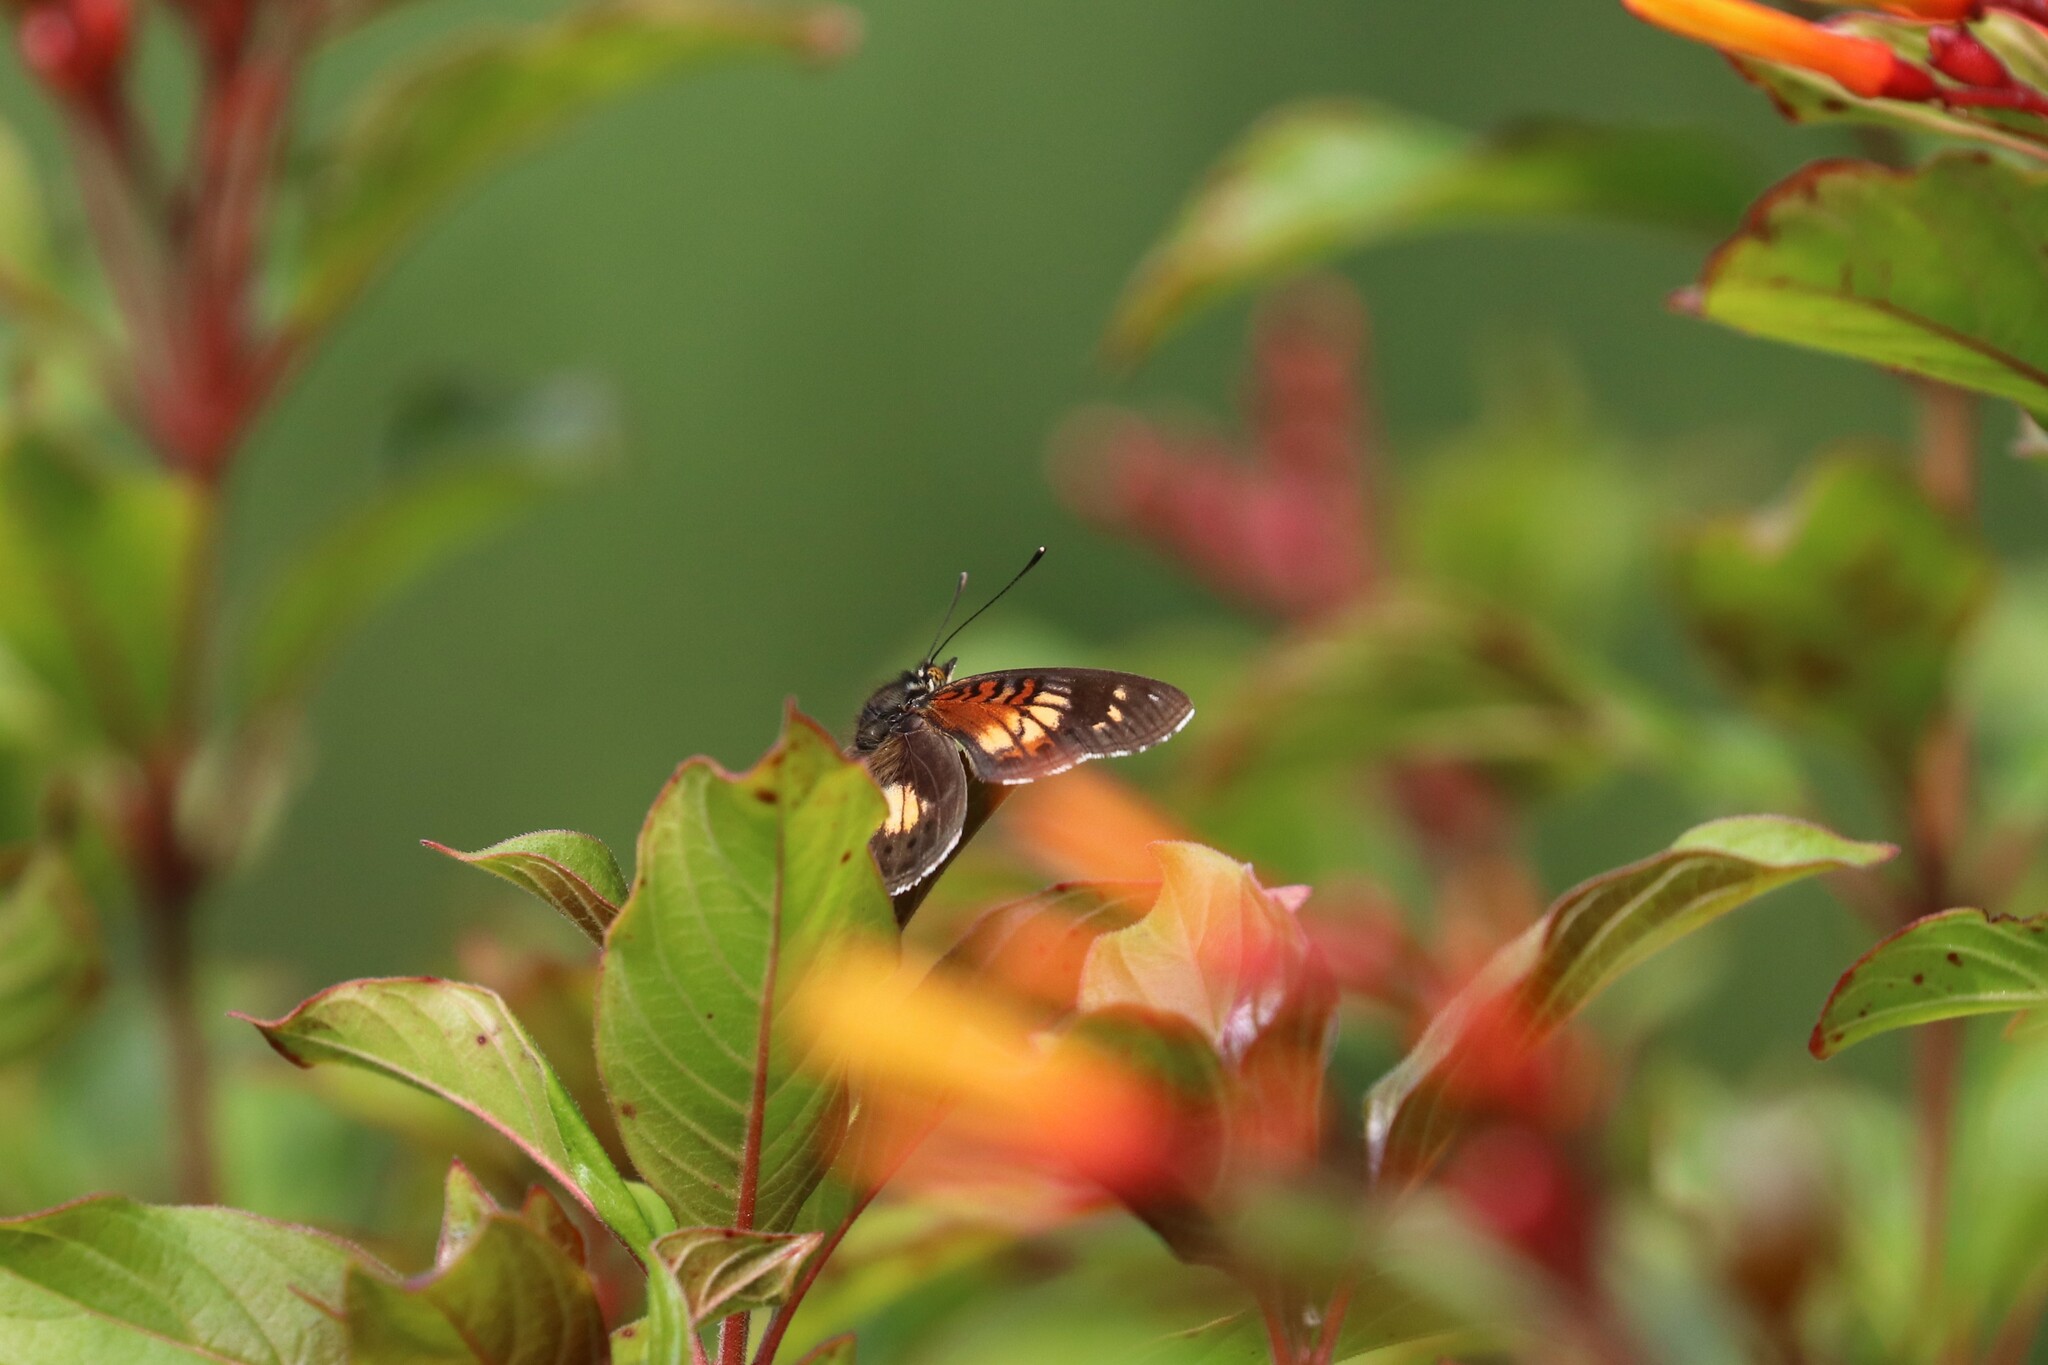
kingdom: Animalia
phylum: Arthropoda
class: Insecta
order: Lepidoptera
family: Nymphalidae
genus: Junonia
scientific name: Junonia sophia
